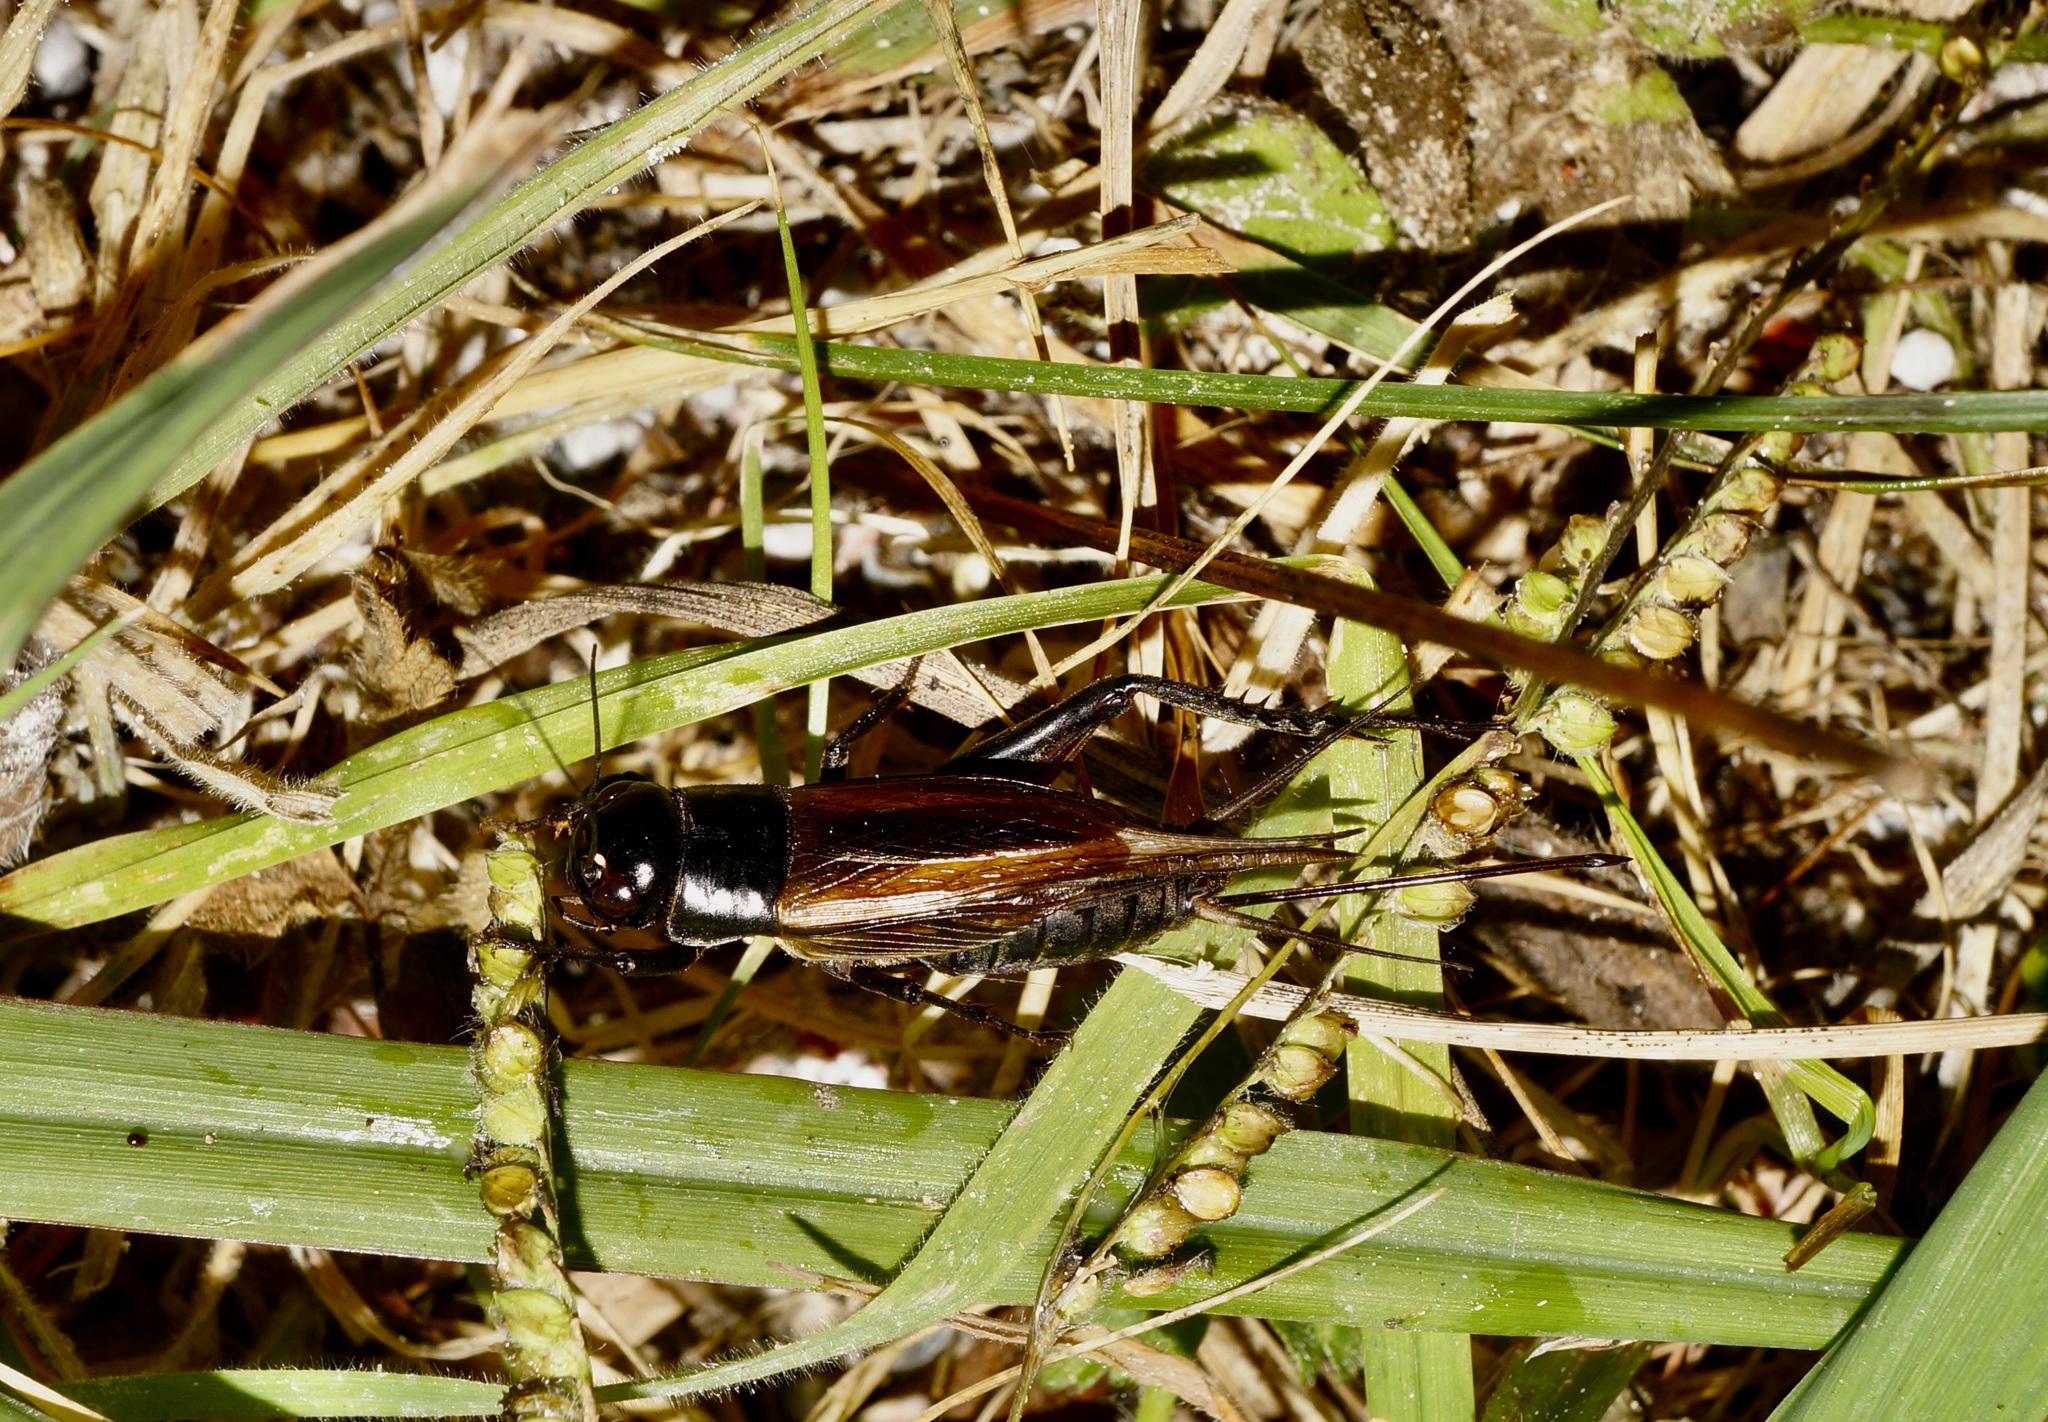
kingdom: Animalia
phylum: Arthropoda
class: Insecta
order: Orthoptera
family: Gryllidae
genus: Teleogryllus
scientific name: Teleogryllus commodus
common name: Black field cricket
